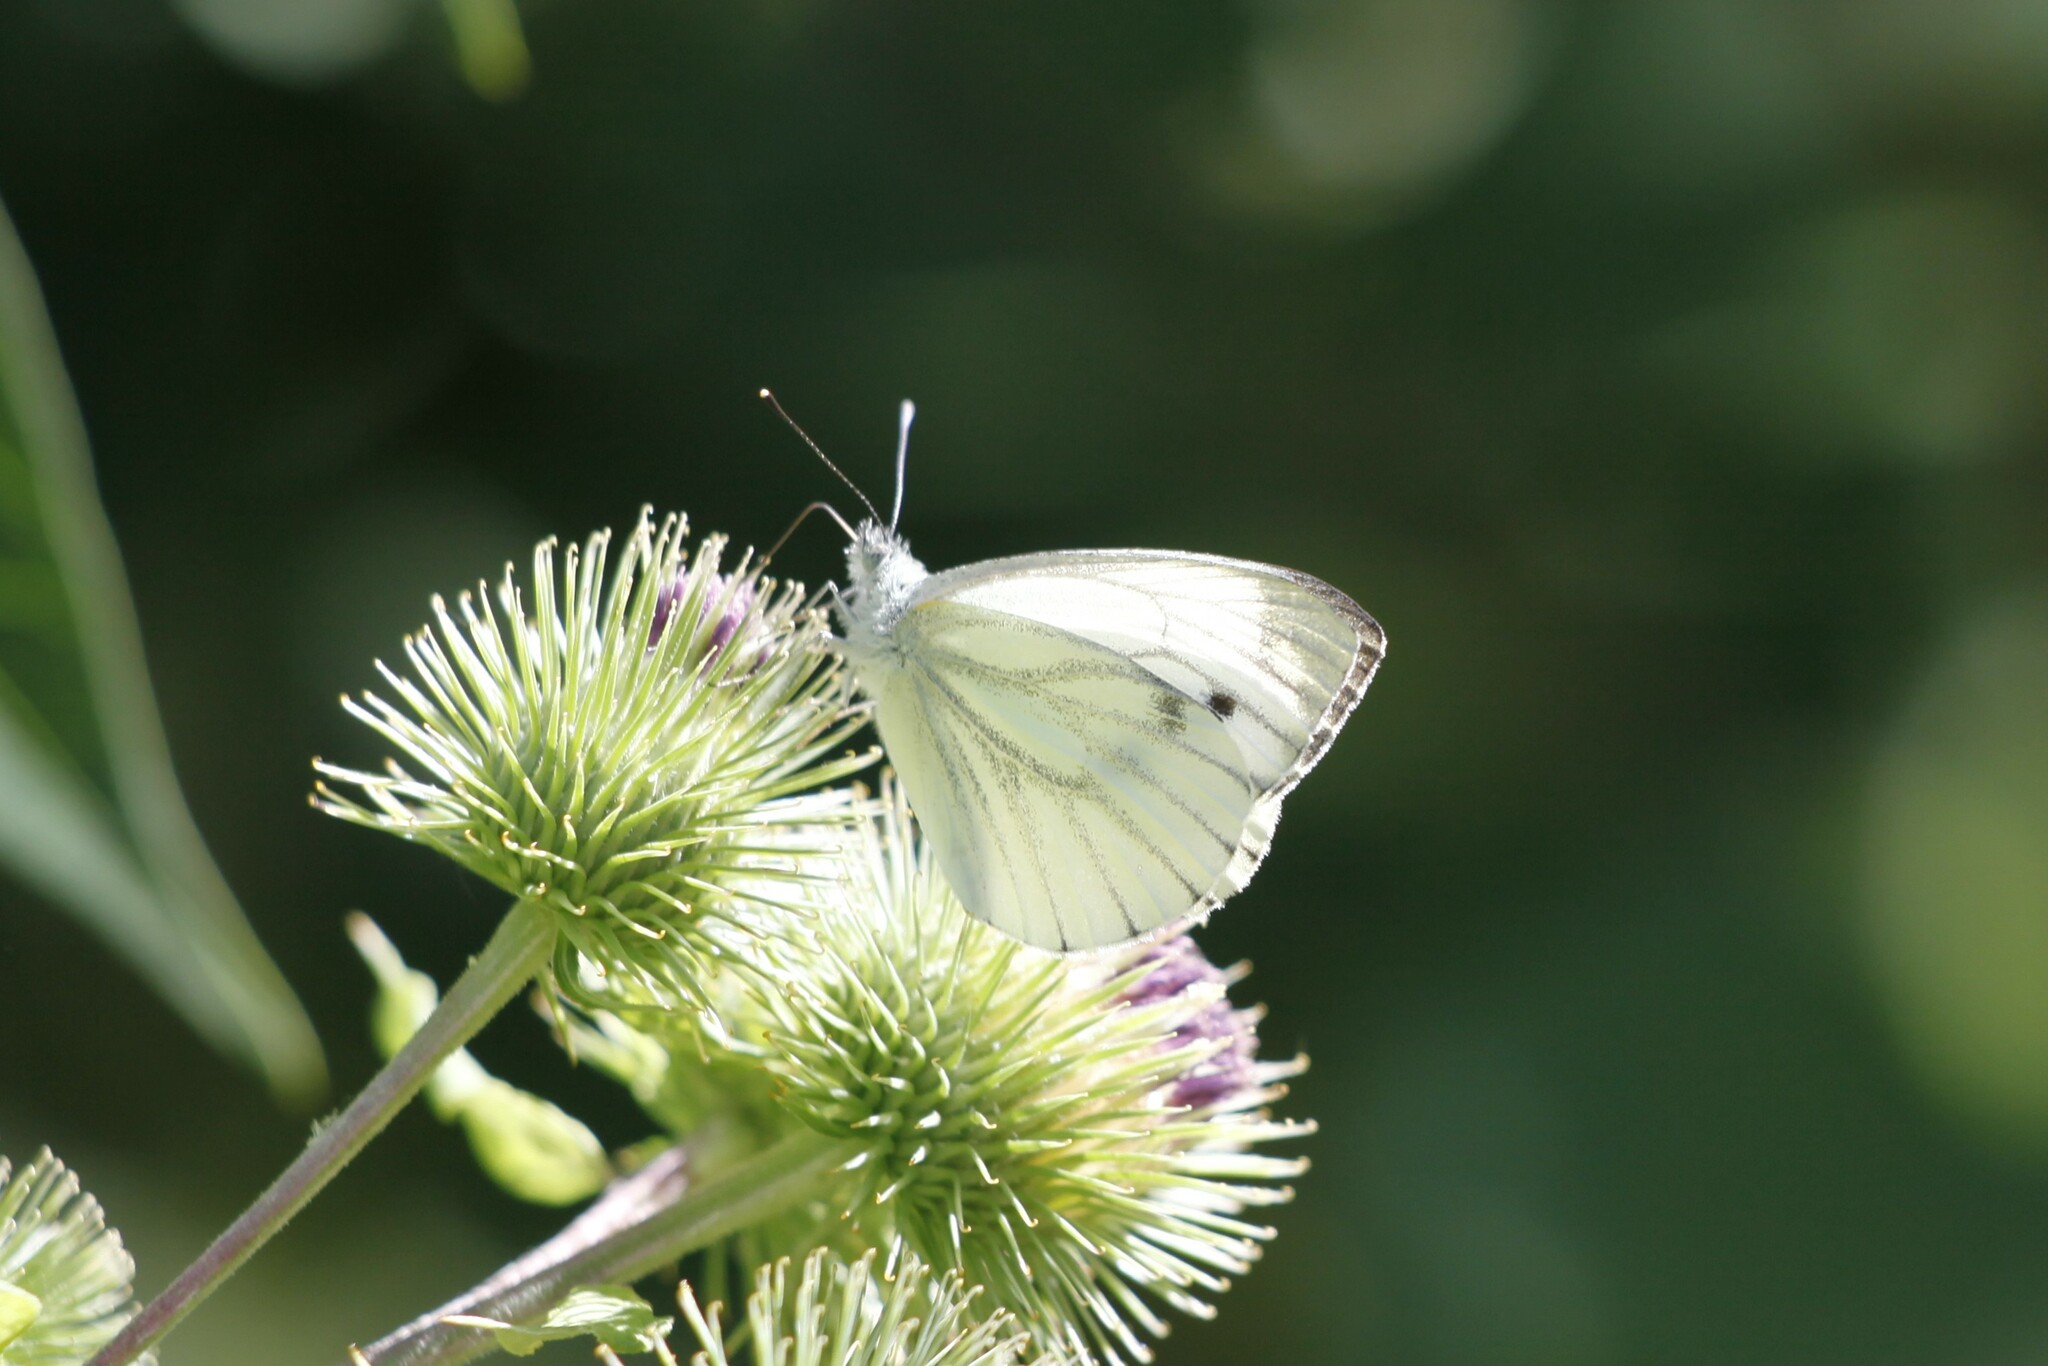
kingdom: Animalia
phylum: Arthropoda
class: Insecta
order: Lepidoptera
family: Pieridae
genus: Pieris
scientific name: Pieris napi
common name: Green-veined white
